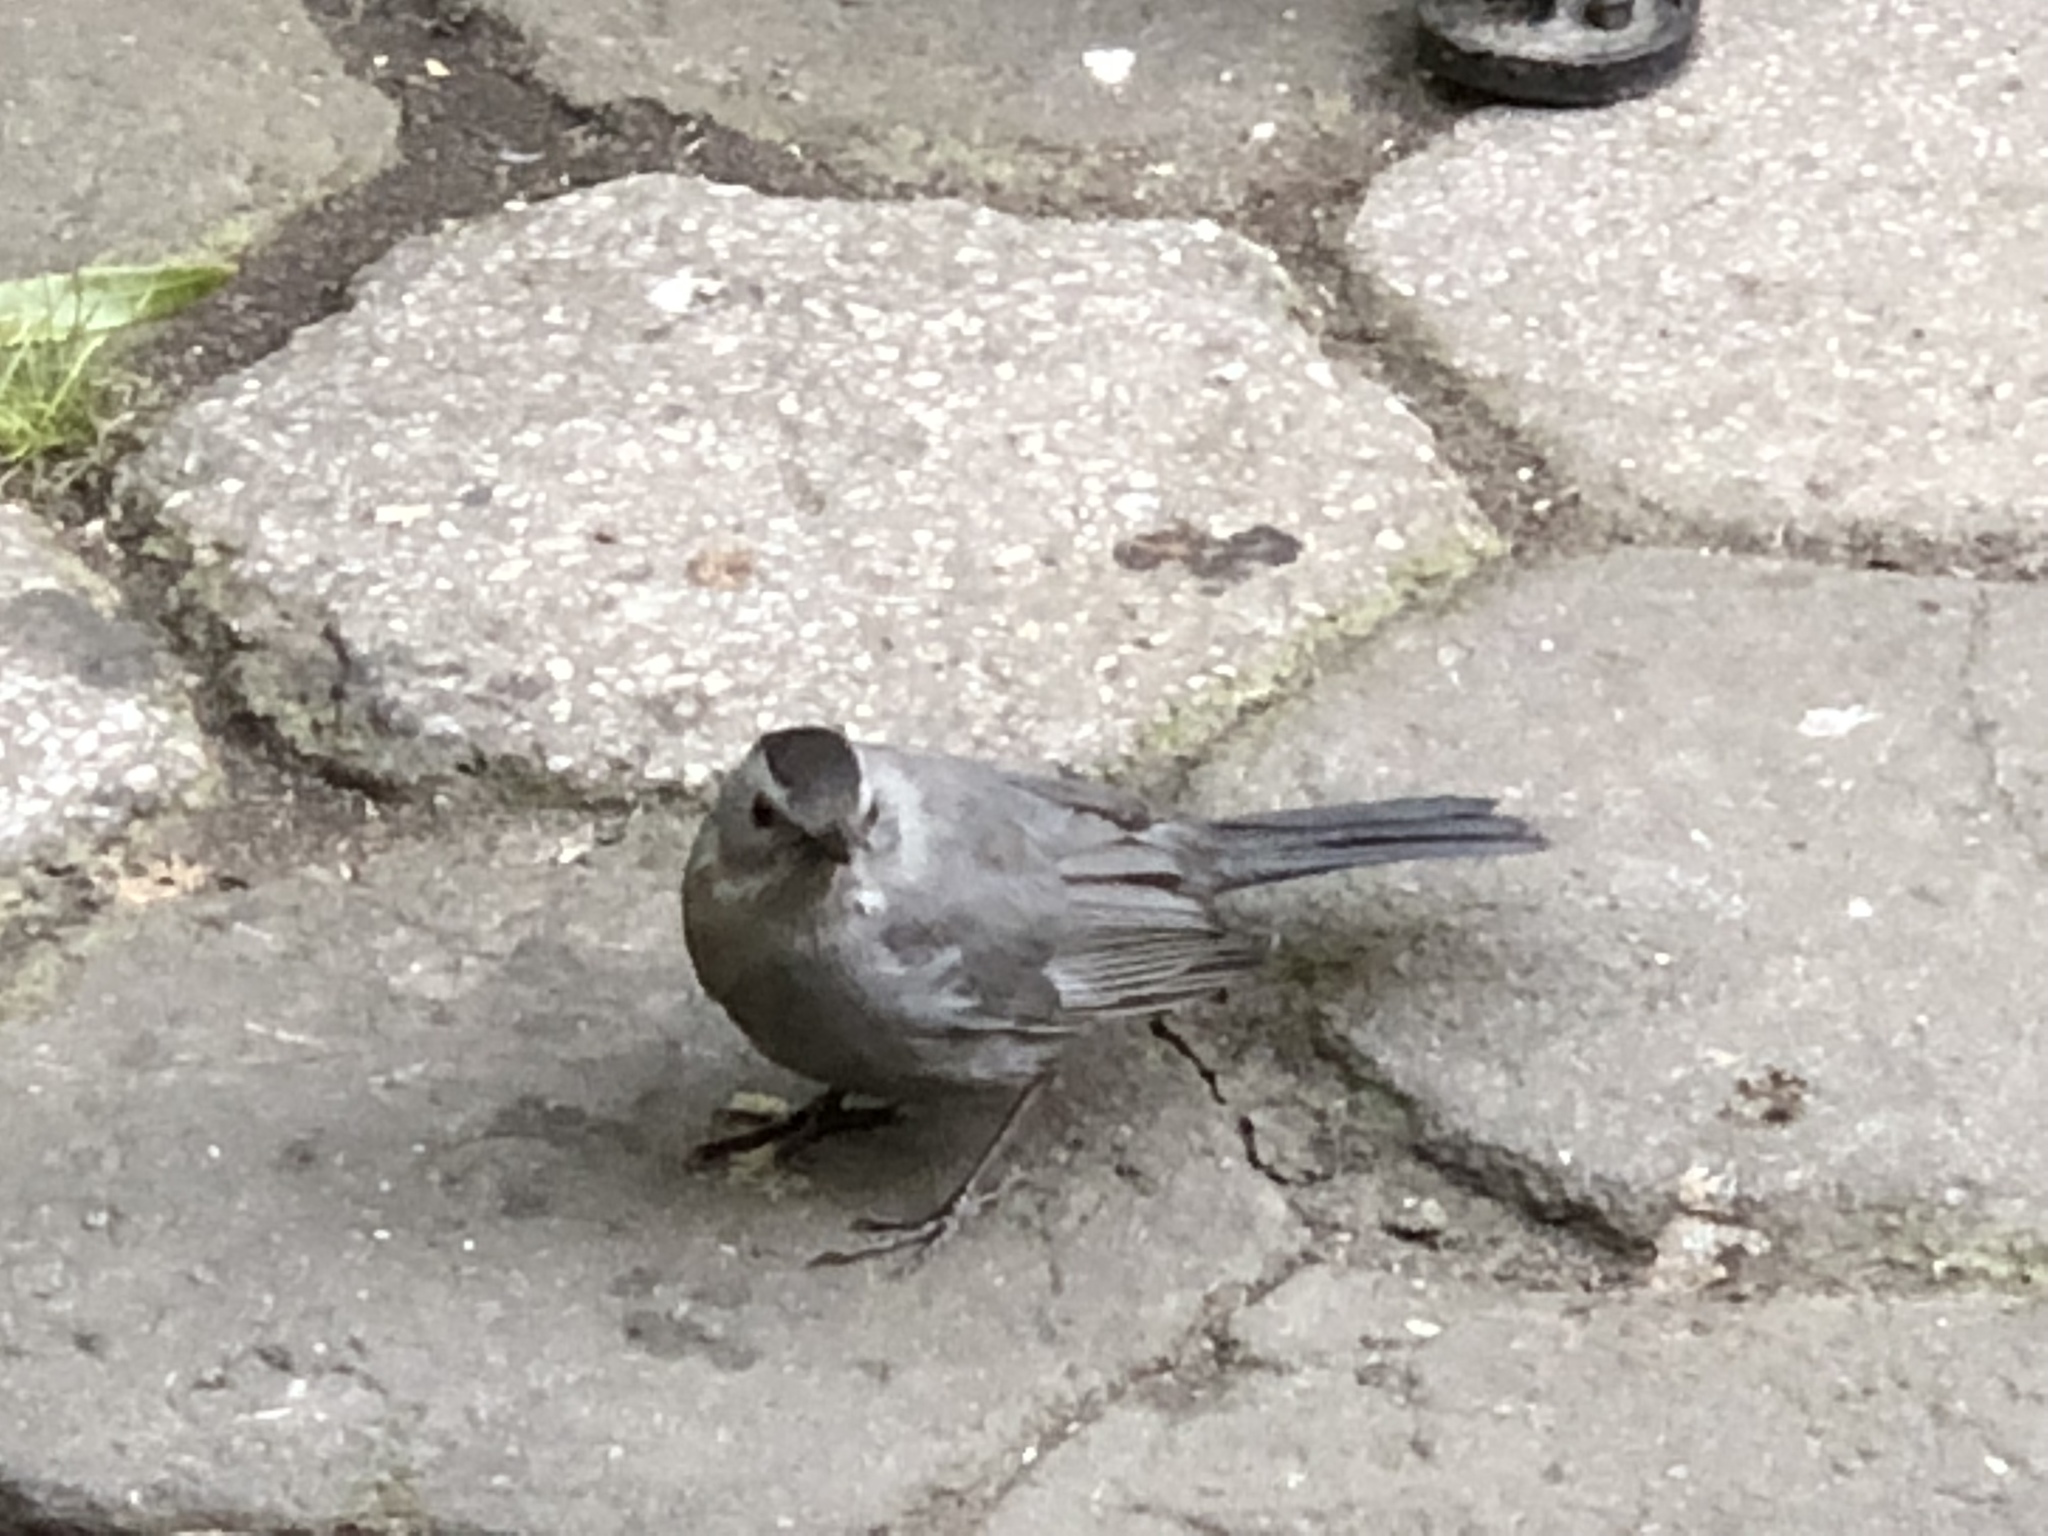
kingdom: Animalia
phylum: Chordata
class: Aves
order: Passeriformes
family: Mimidae
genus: Dumetella
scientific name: Dumetella carolinensis
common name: Gray catbird
